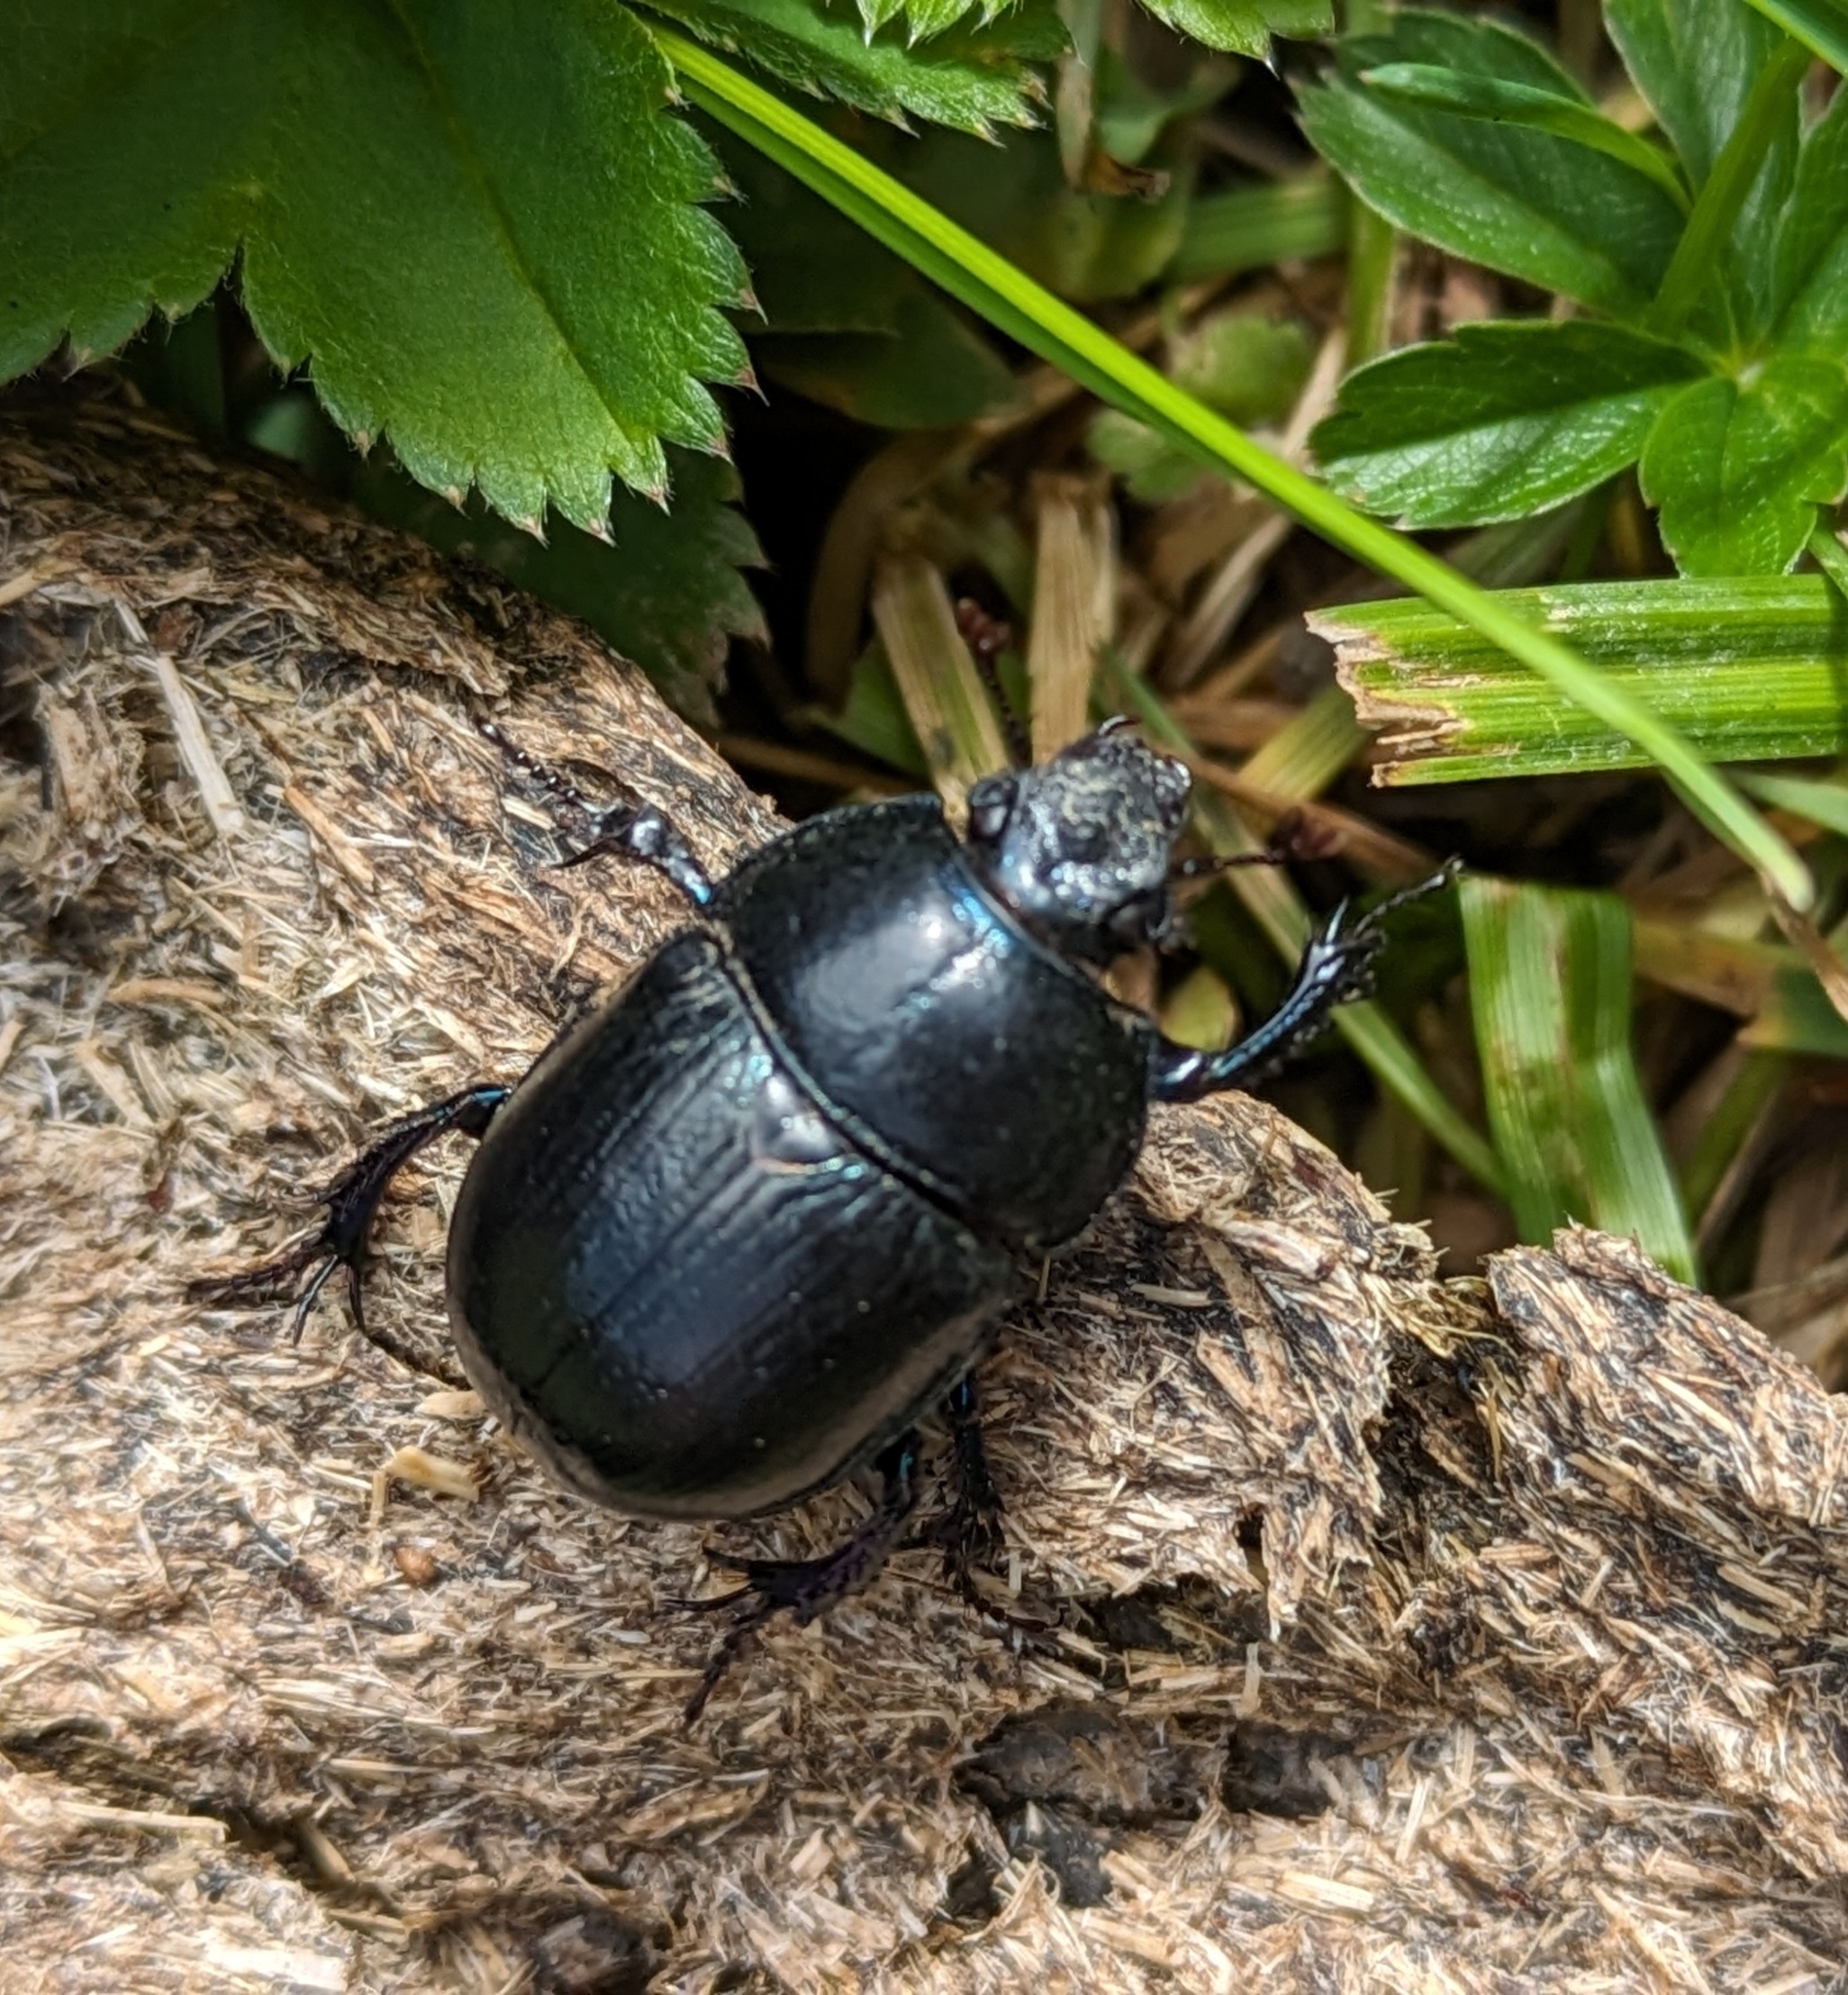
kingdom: Animalia
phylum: Arthropoda
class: Insecta
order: Coleoptera
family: Geotrupidae
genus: Anoplotrupes
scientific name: Anoplotrupes stercorosus
